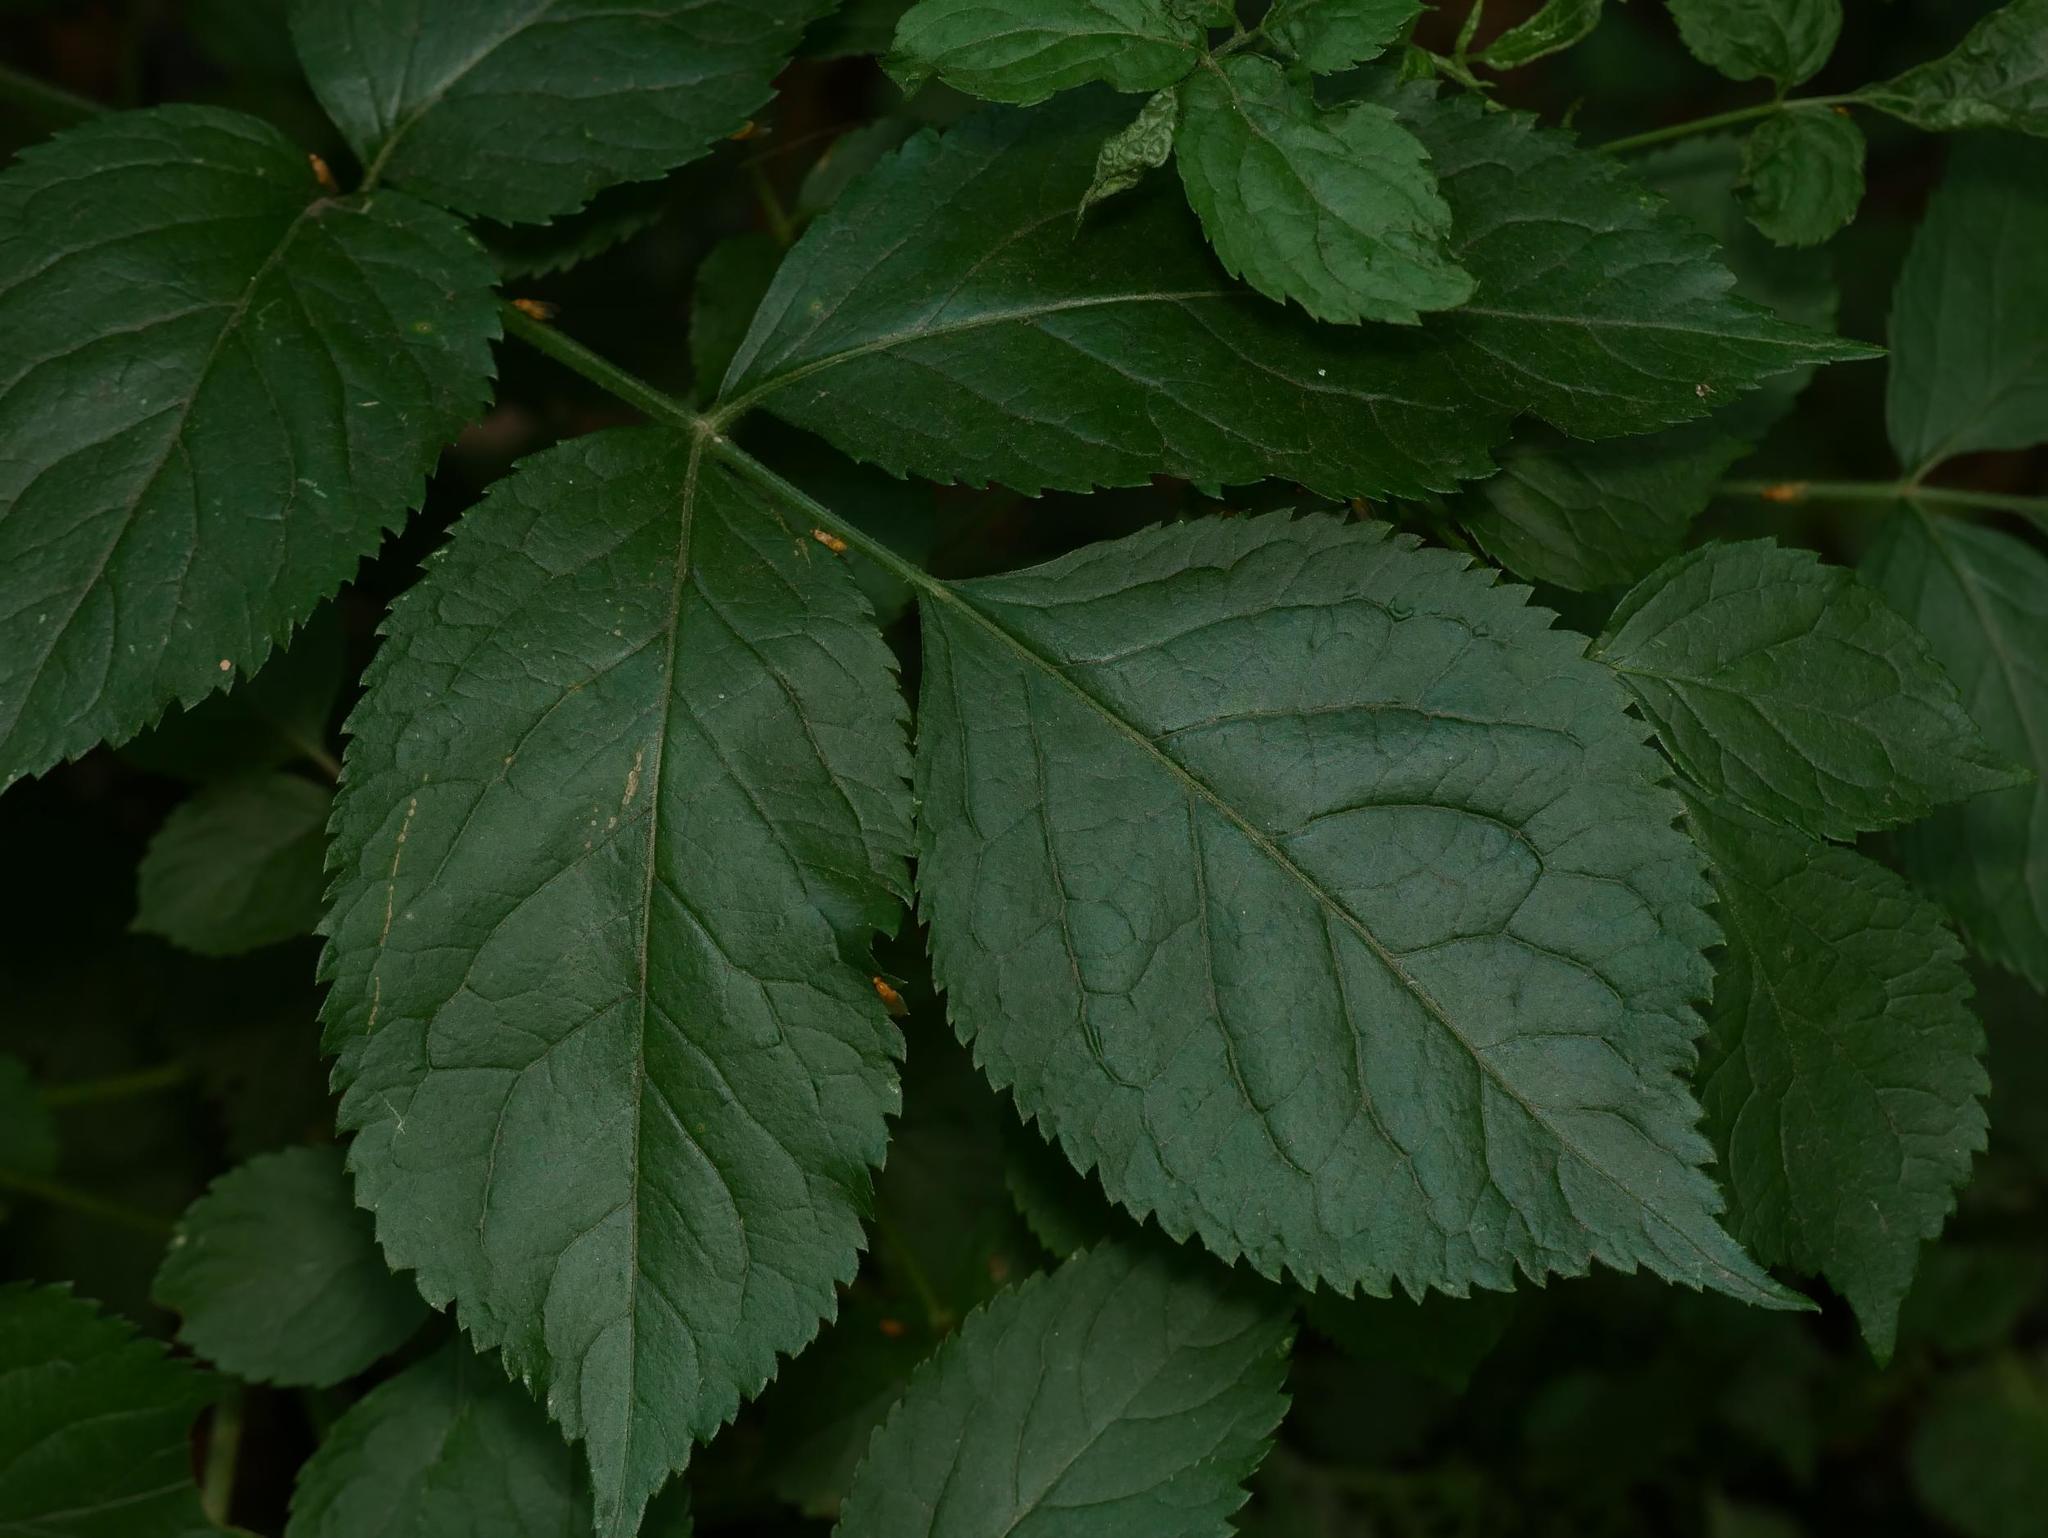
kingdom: Plantae
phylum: Tracheophyta
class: Magnoliopsida
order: Dipsacales
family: Viburnaceae
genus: Sambucus
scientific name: Sambucus nigra
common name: Elder
